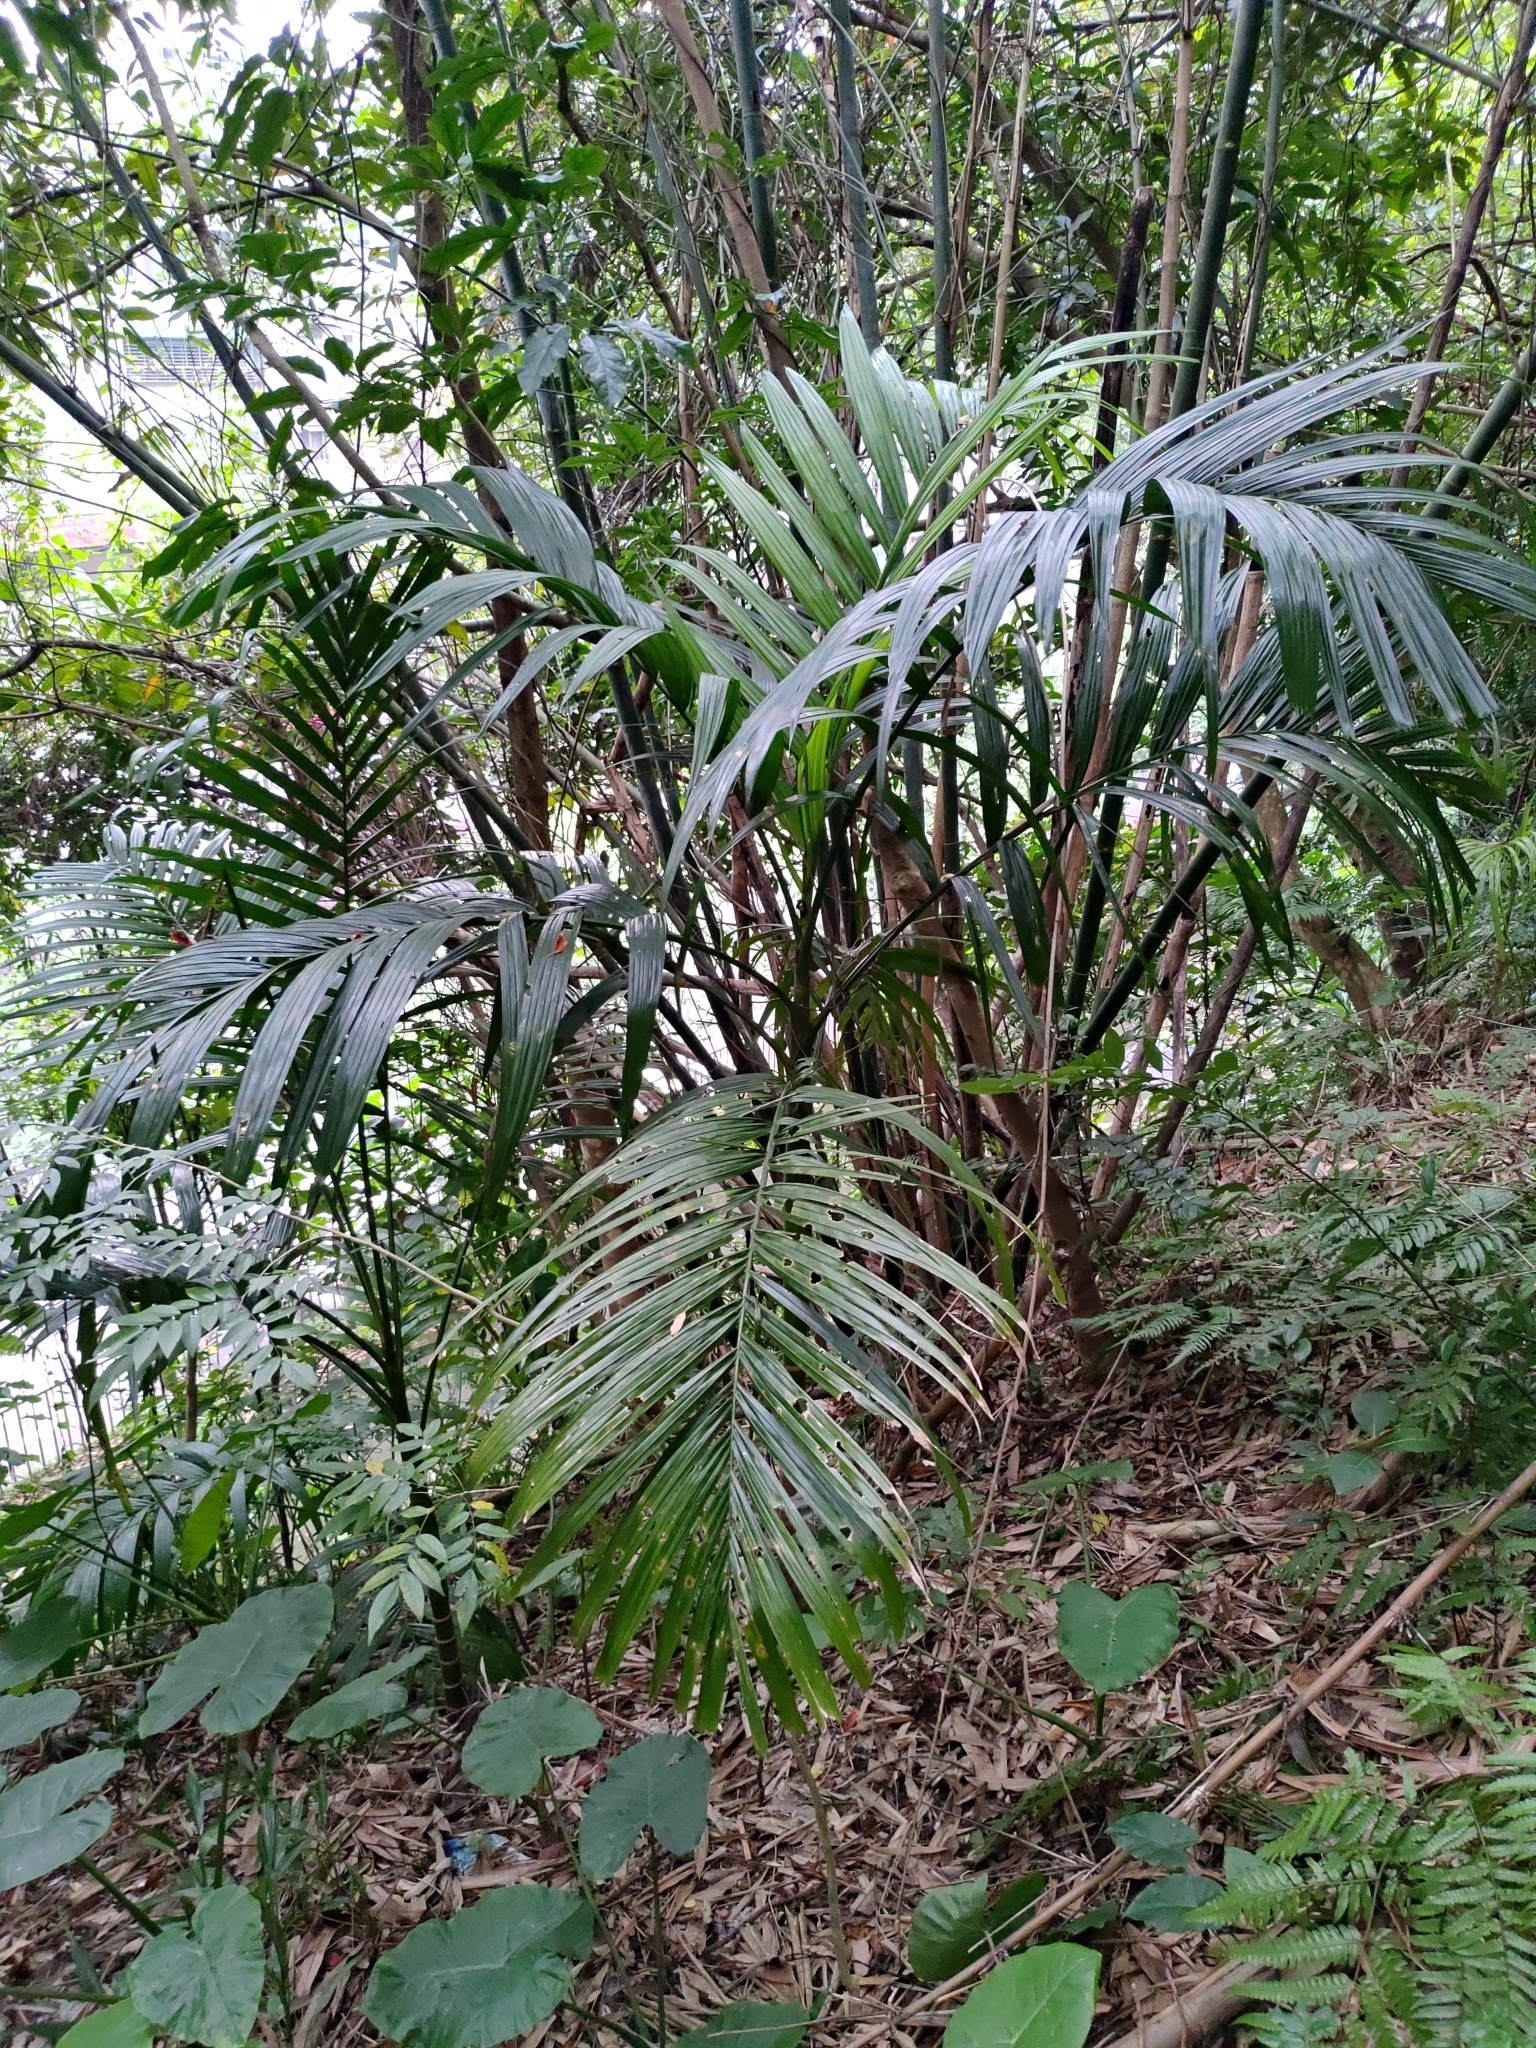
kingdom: Plantae
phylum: Tracheophyta
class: Liliopsida
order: Arecales
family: Arecaceae
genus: Arenga
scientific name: Arenga engleri
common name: Formosan sugar palm
